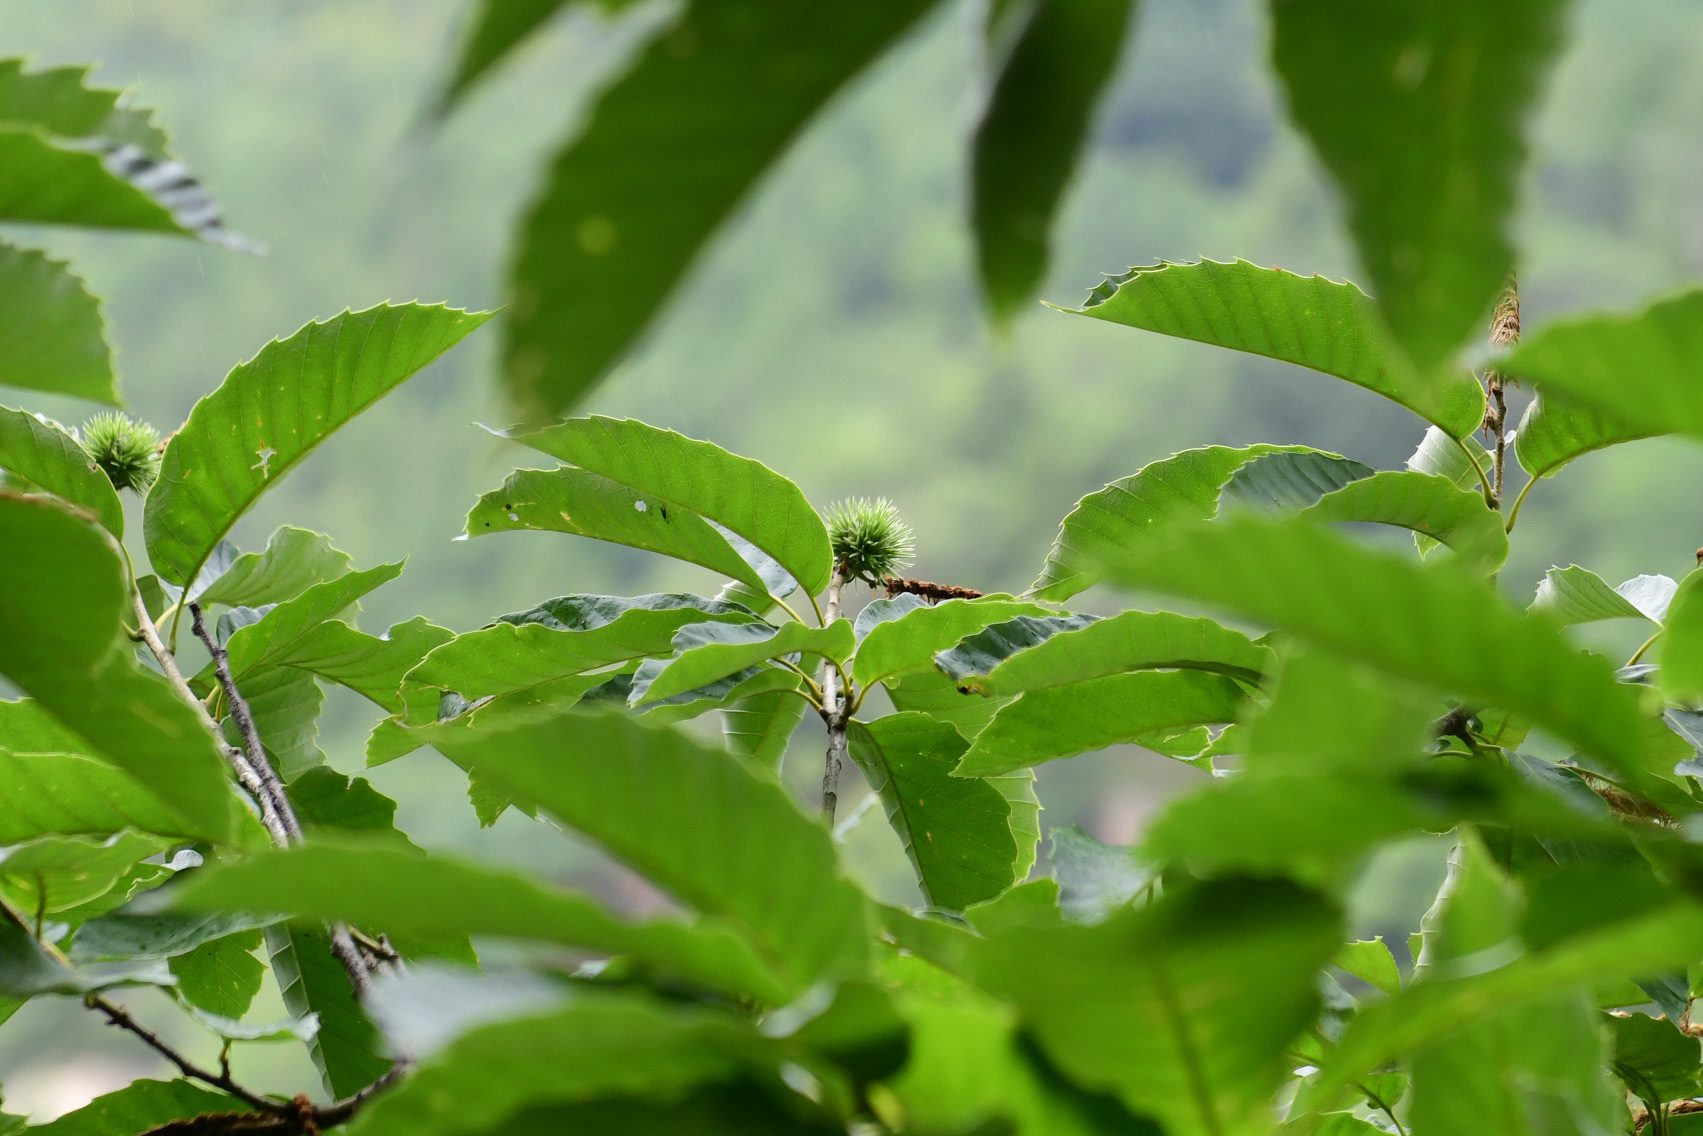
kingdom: Plantae
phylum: Tracheophyta
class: Magnoliopsida
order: Fagales
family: Fagaceae
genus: Castanea
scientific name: Castanea mollissima
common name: Chinese chestnut
